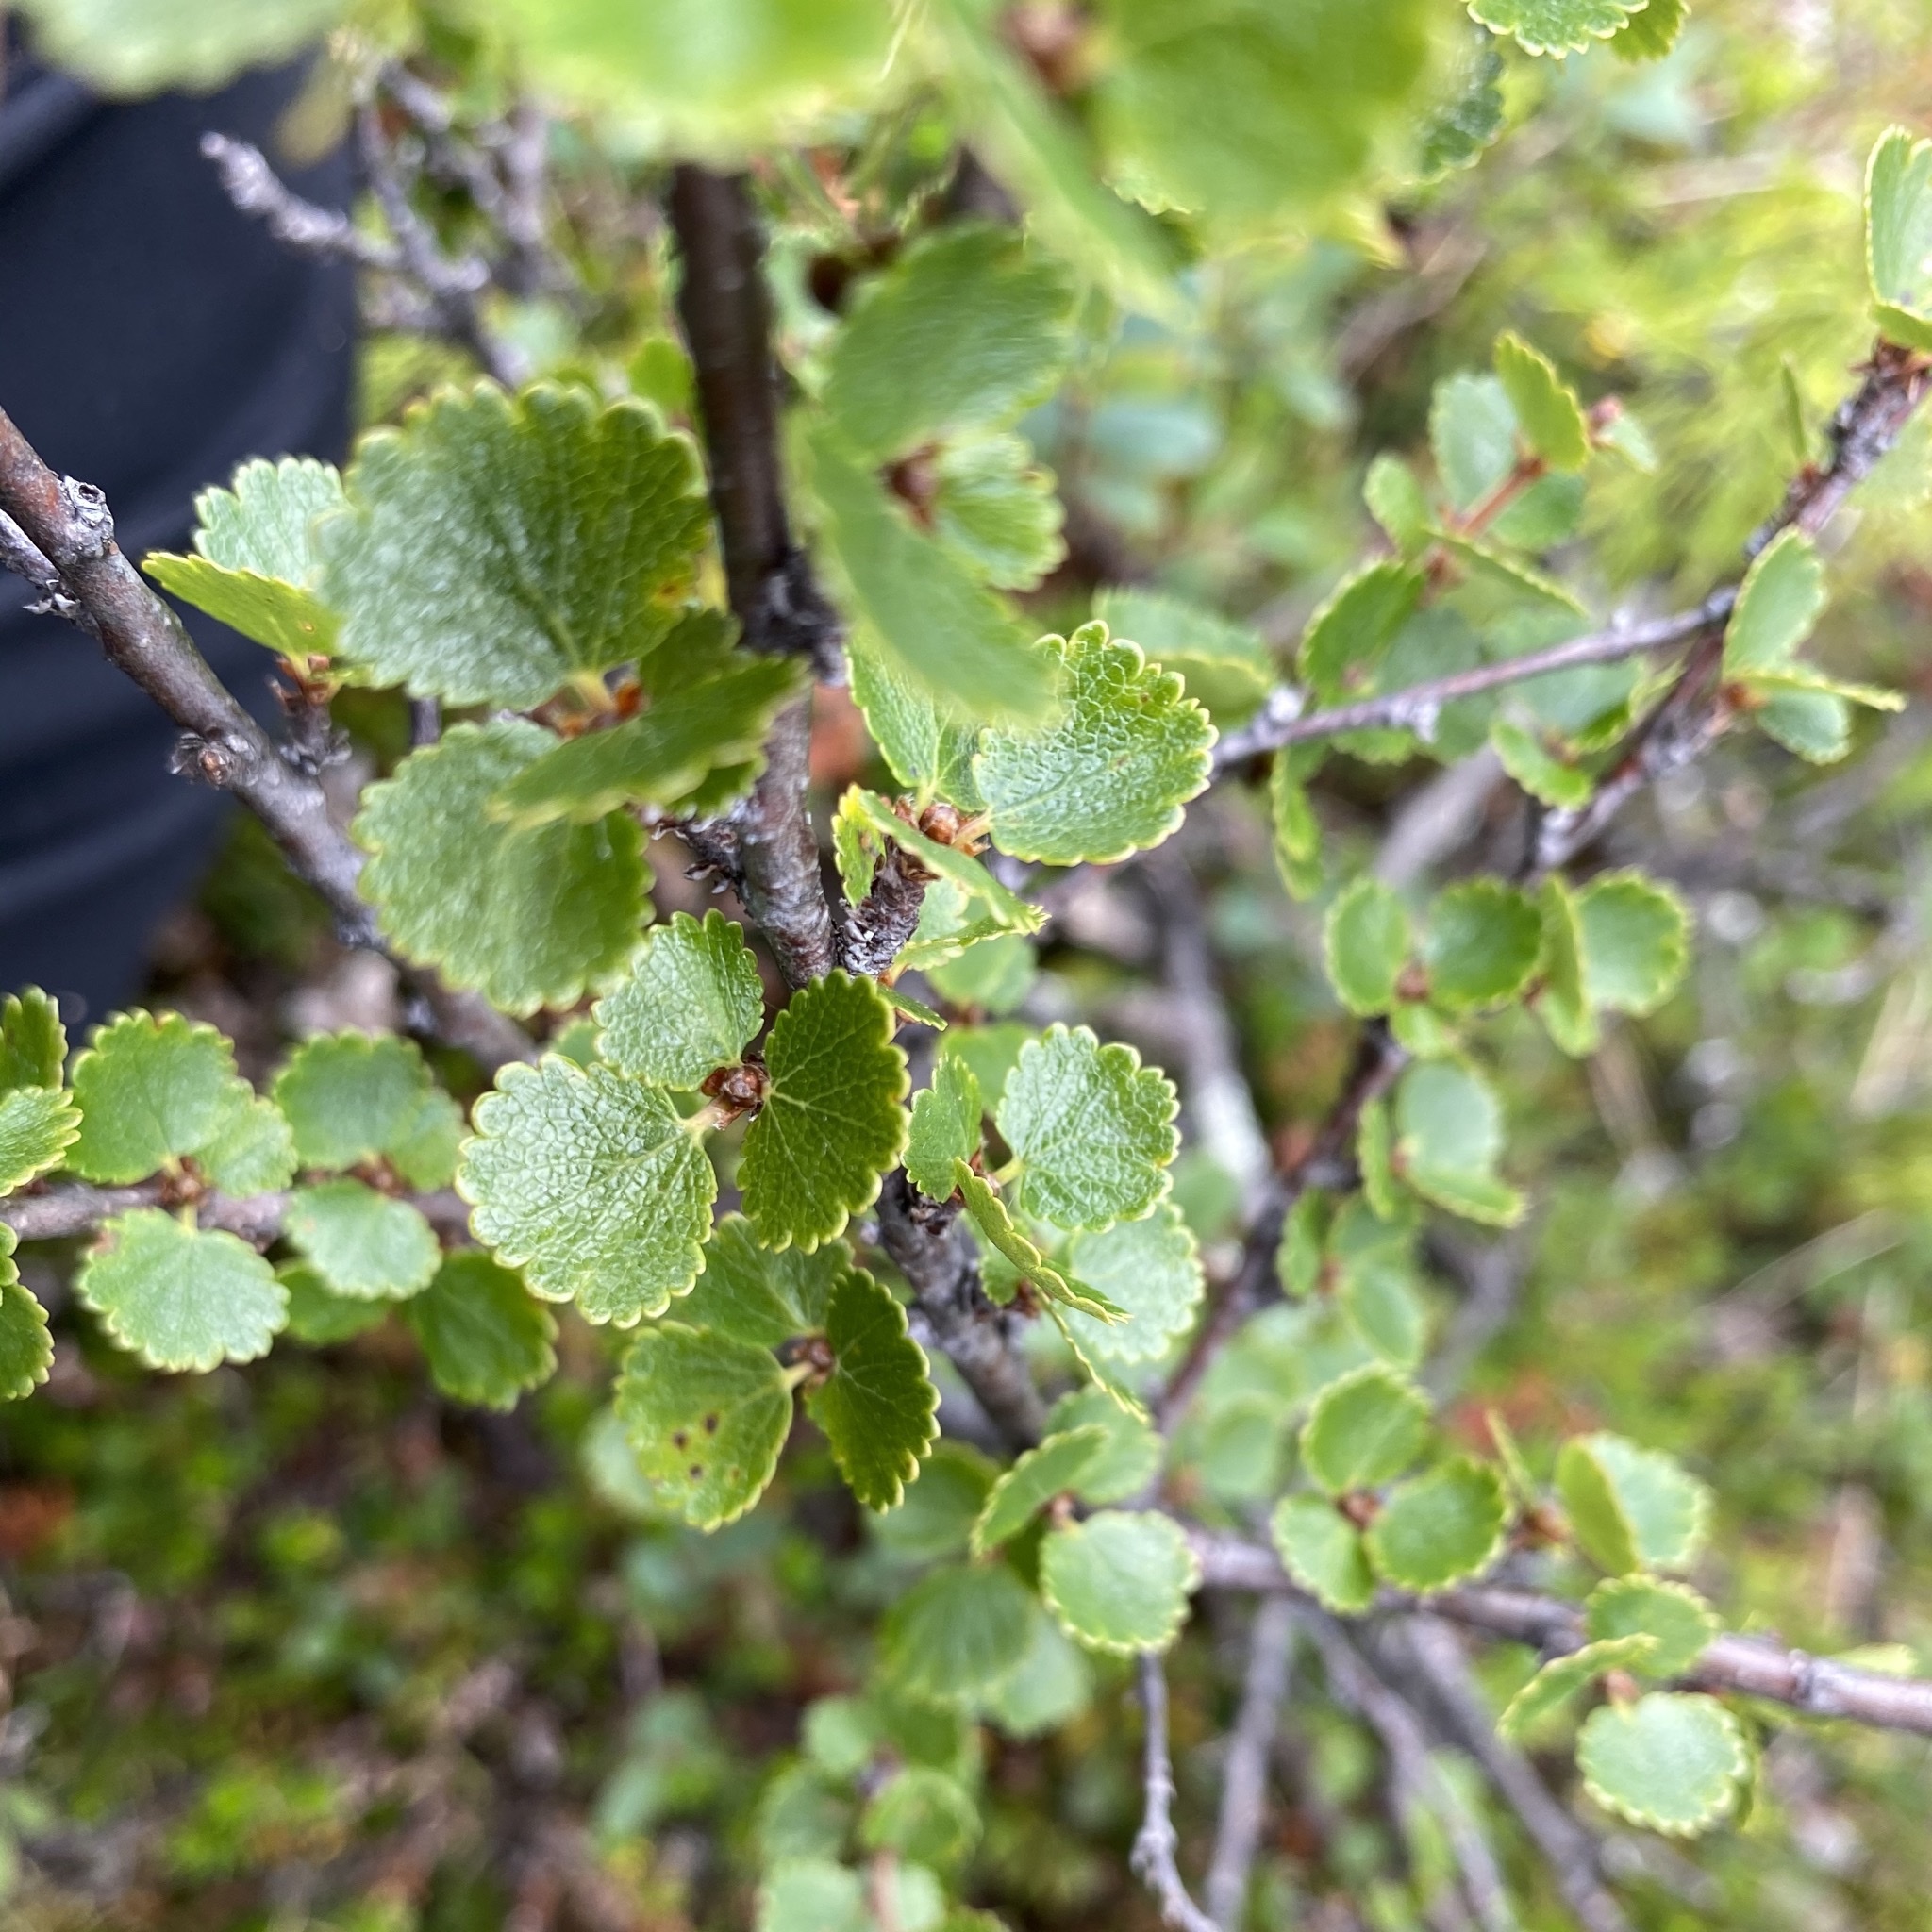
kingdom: Plantae
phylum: Tracheophyta
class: Magnoliopsida
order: Fagales
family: Betulaceae
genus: Betula
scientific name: Betula nana
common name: Arctic dwarf birch
